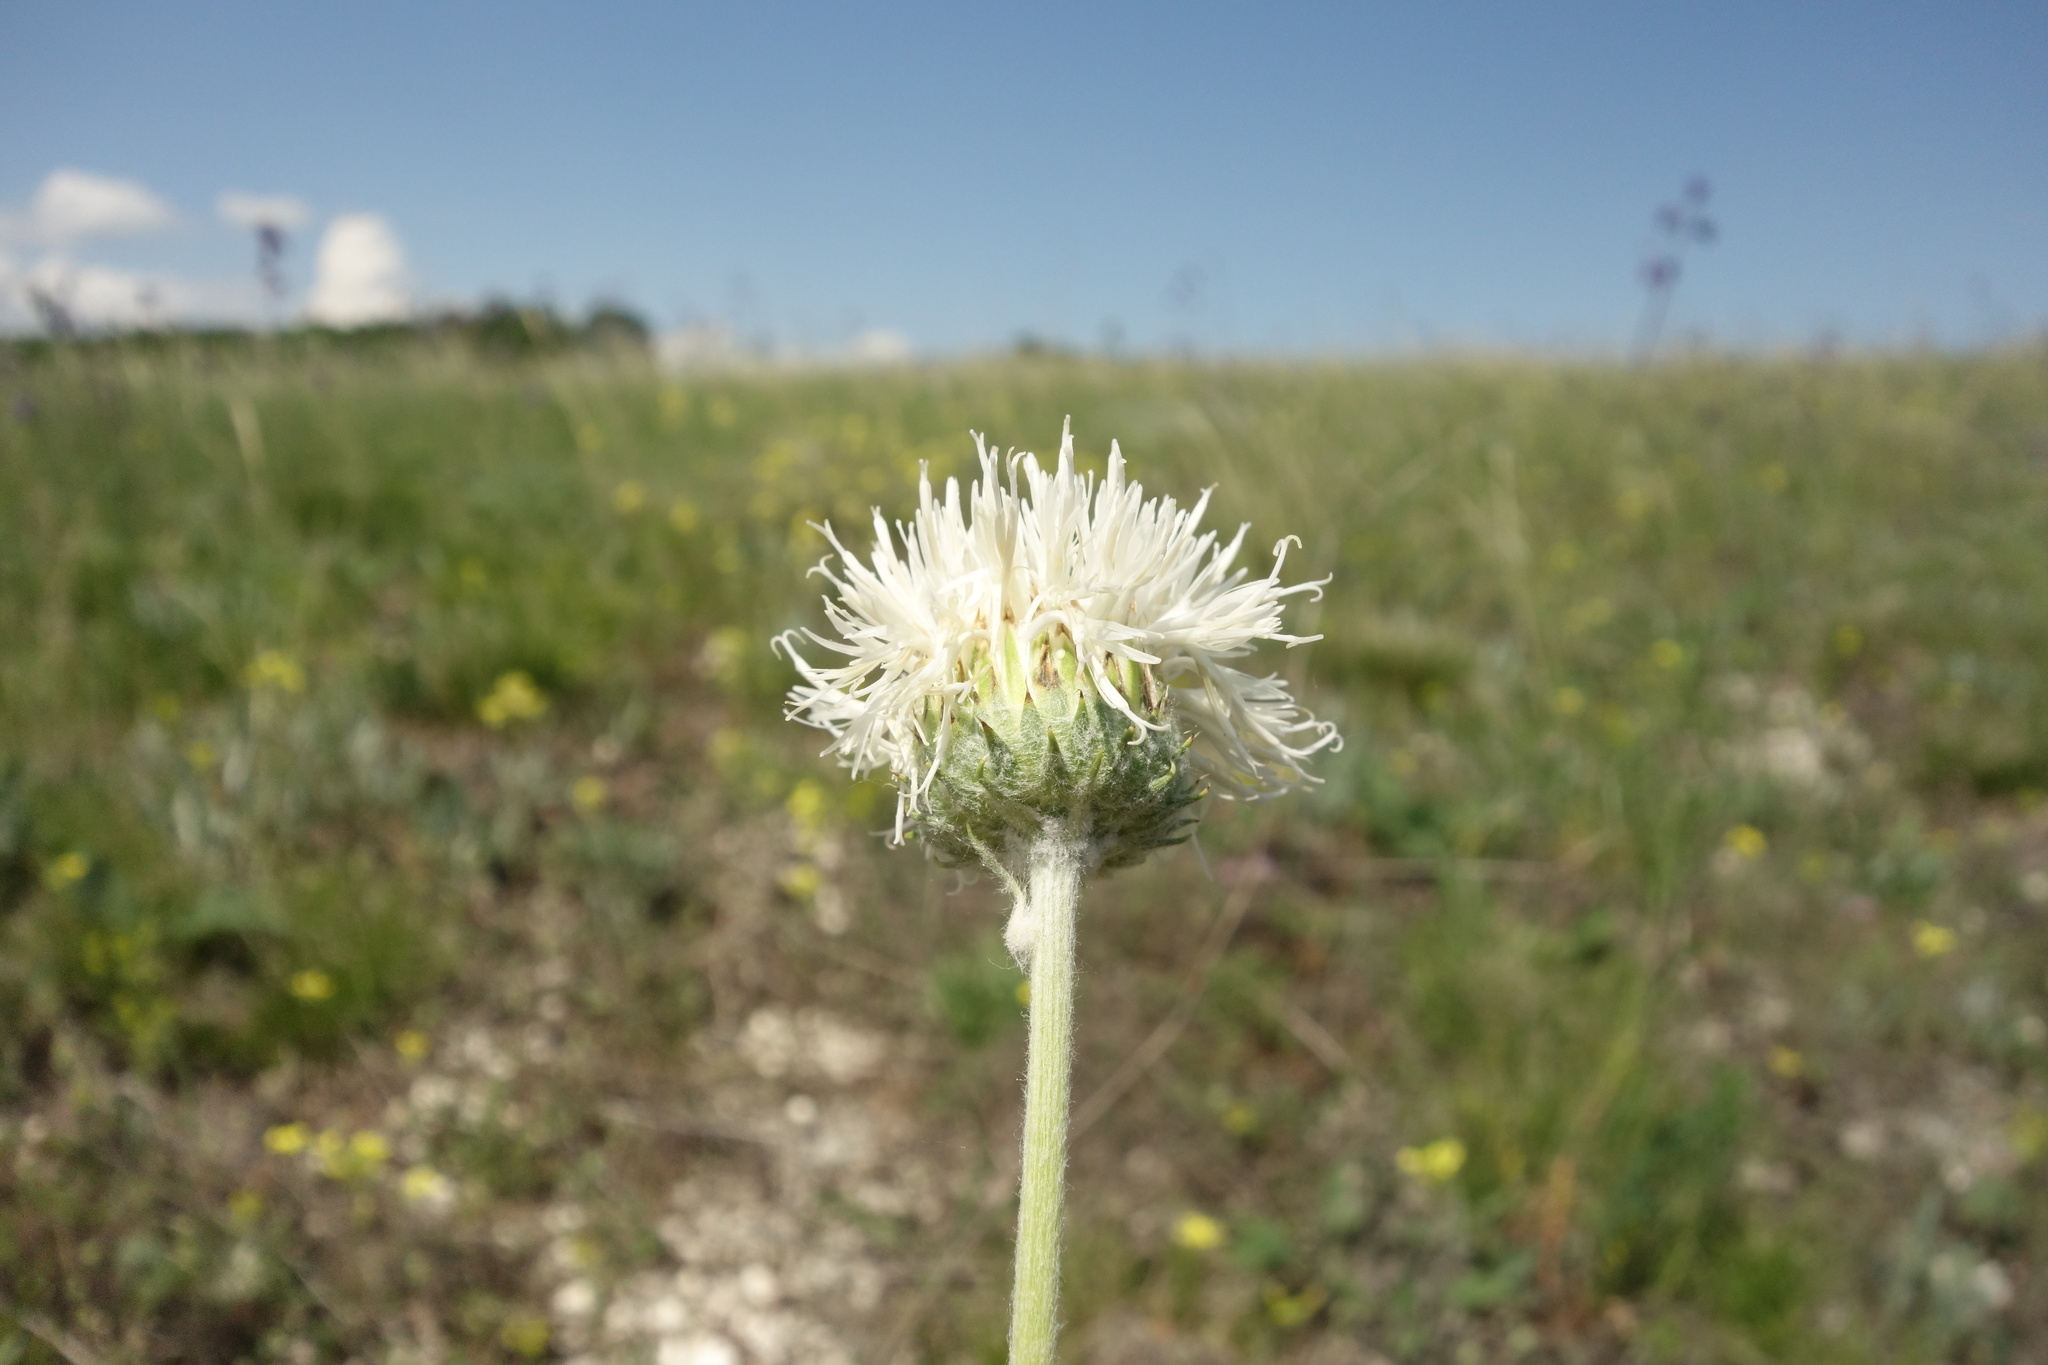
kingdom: Plantae
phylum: Tracheophyta
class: Magnoliopsida
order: Asterales
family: Asteraceae
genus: Jurinea
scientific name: Jurinea arachnoidea
